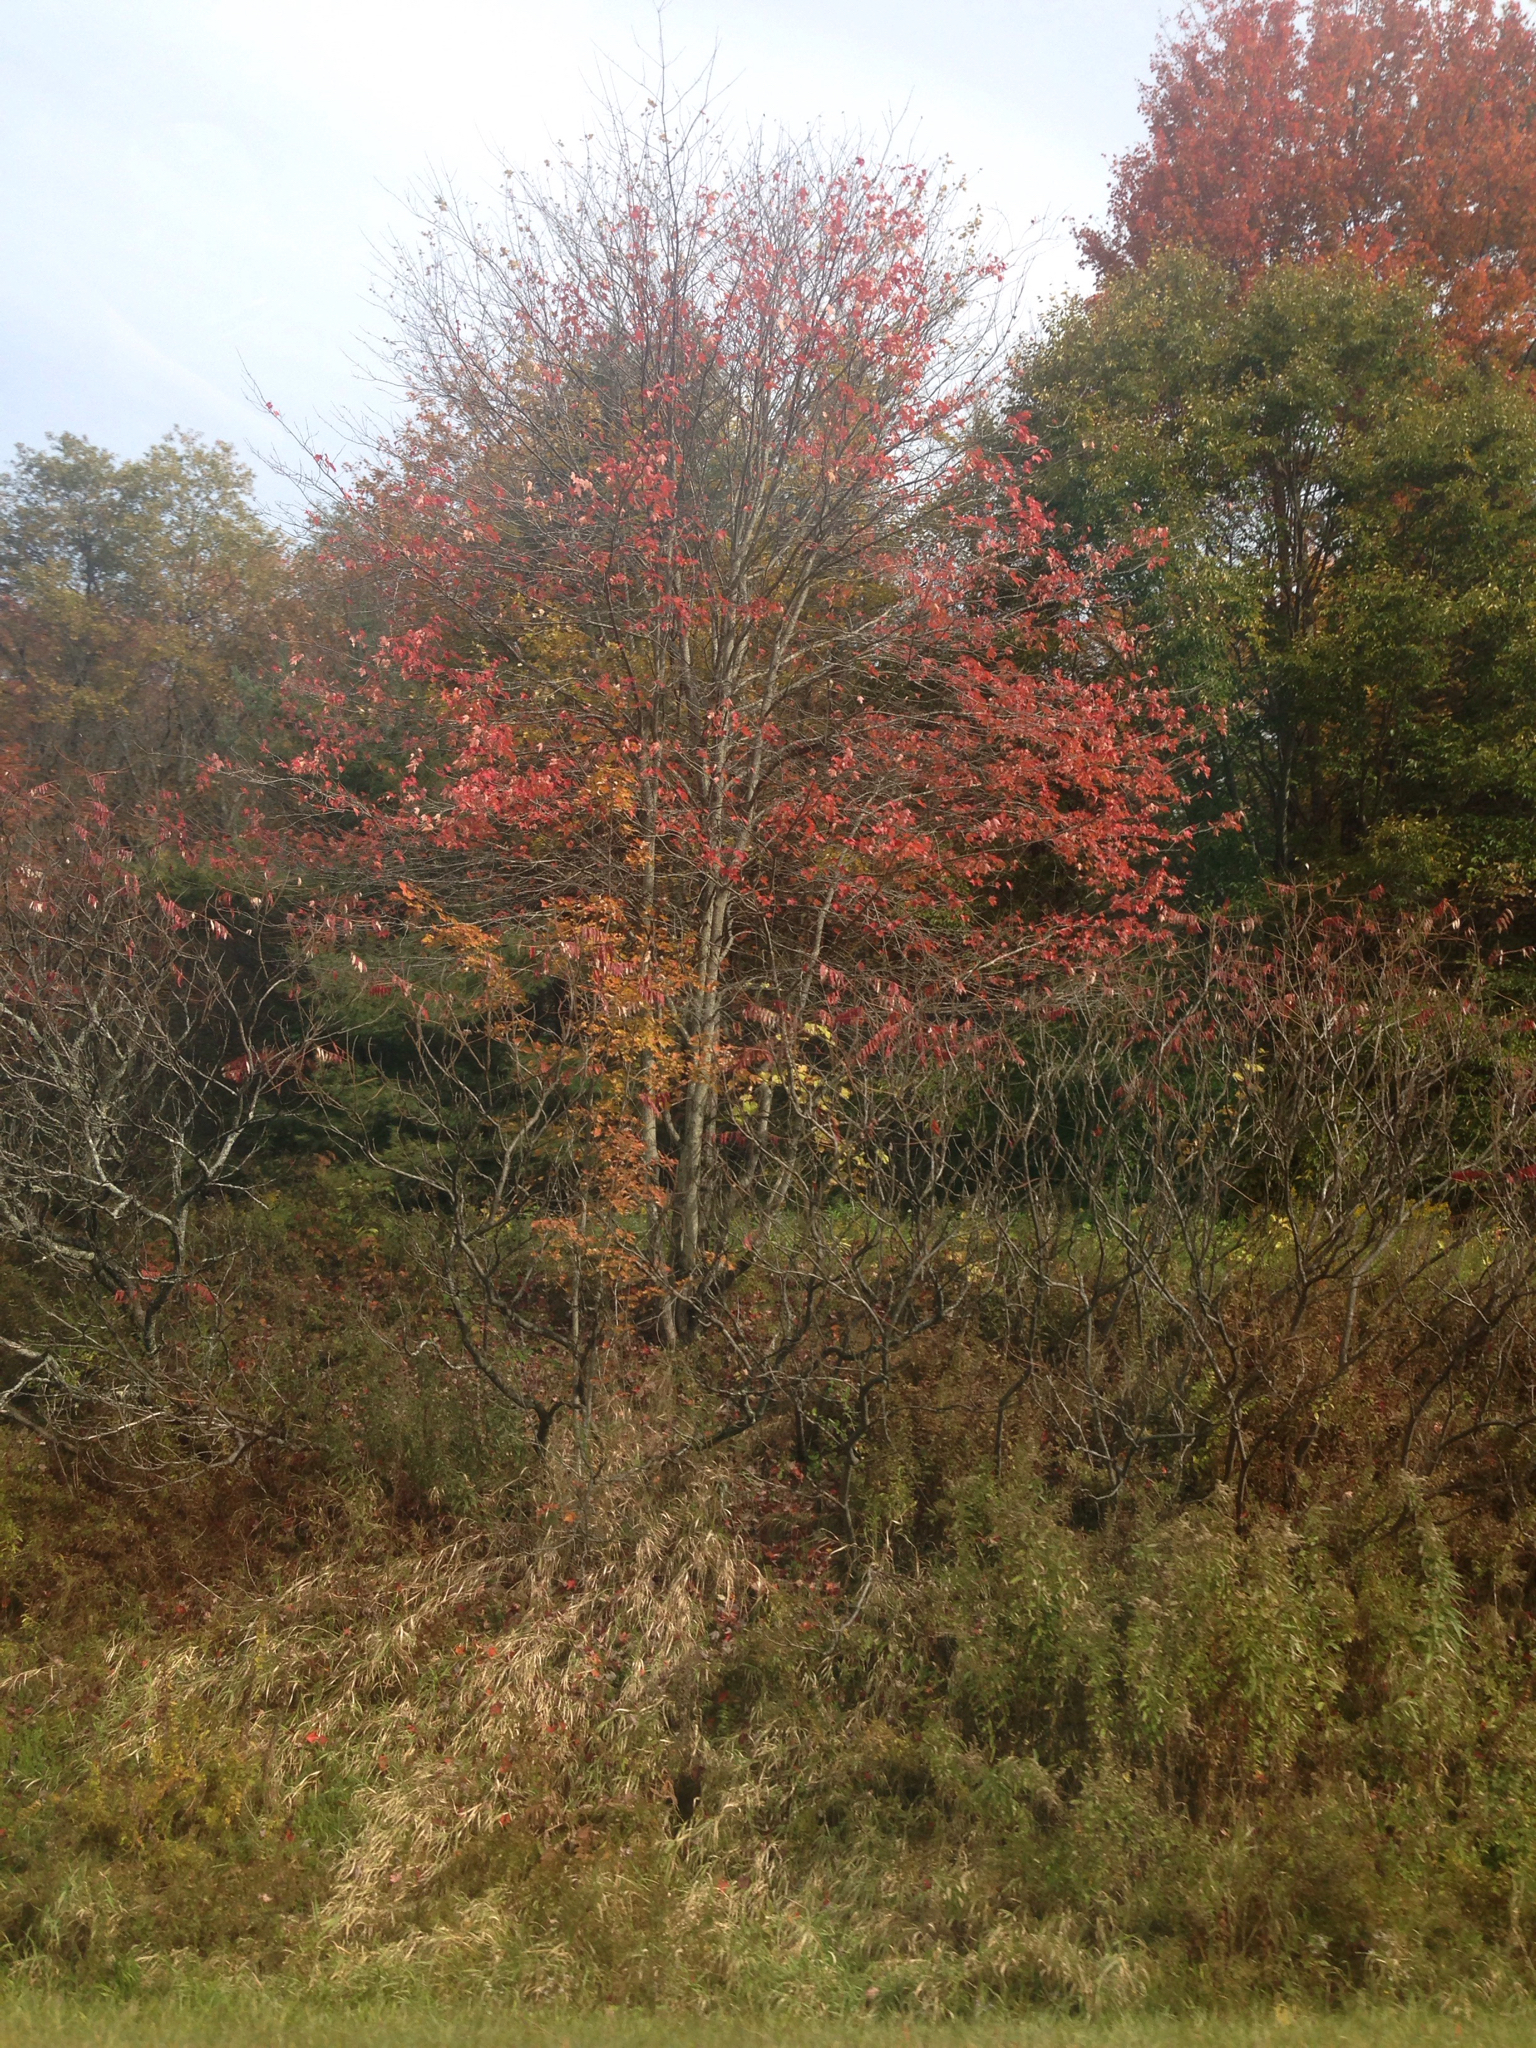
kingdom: Plantae
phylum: Tracheophyta
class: Magnoliopsida
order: Sapindales
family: Sapindaceae
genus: Acer
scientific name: Acer rubrum
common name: Red maple
